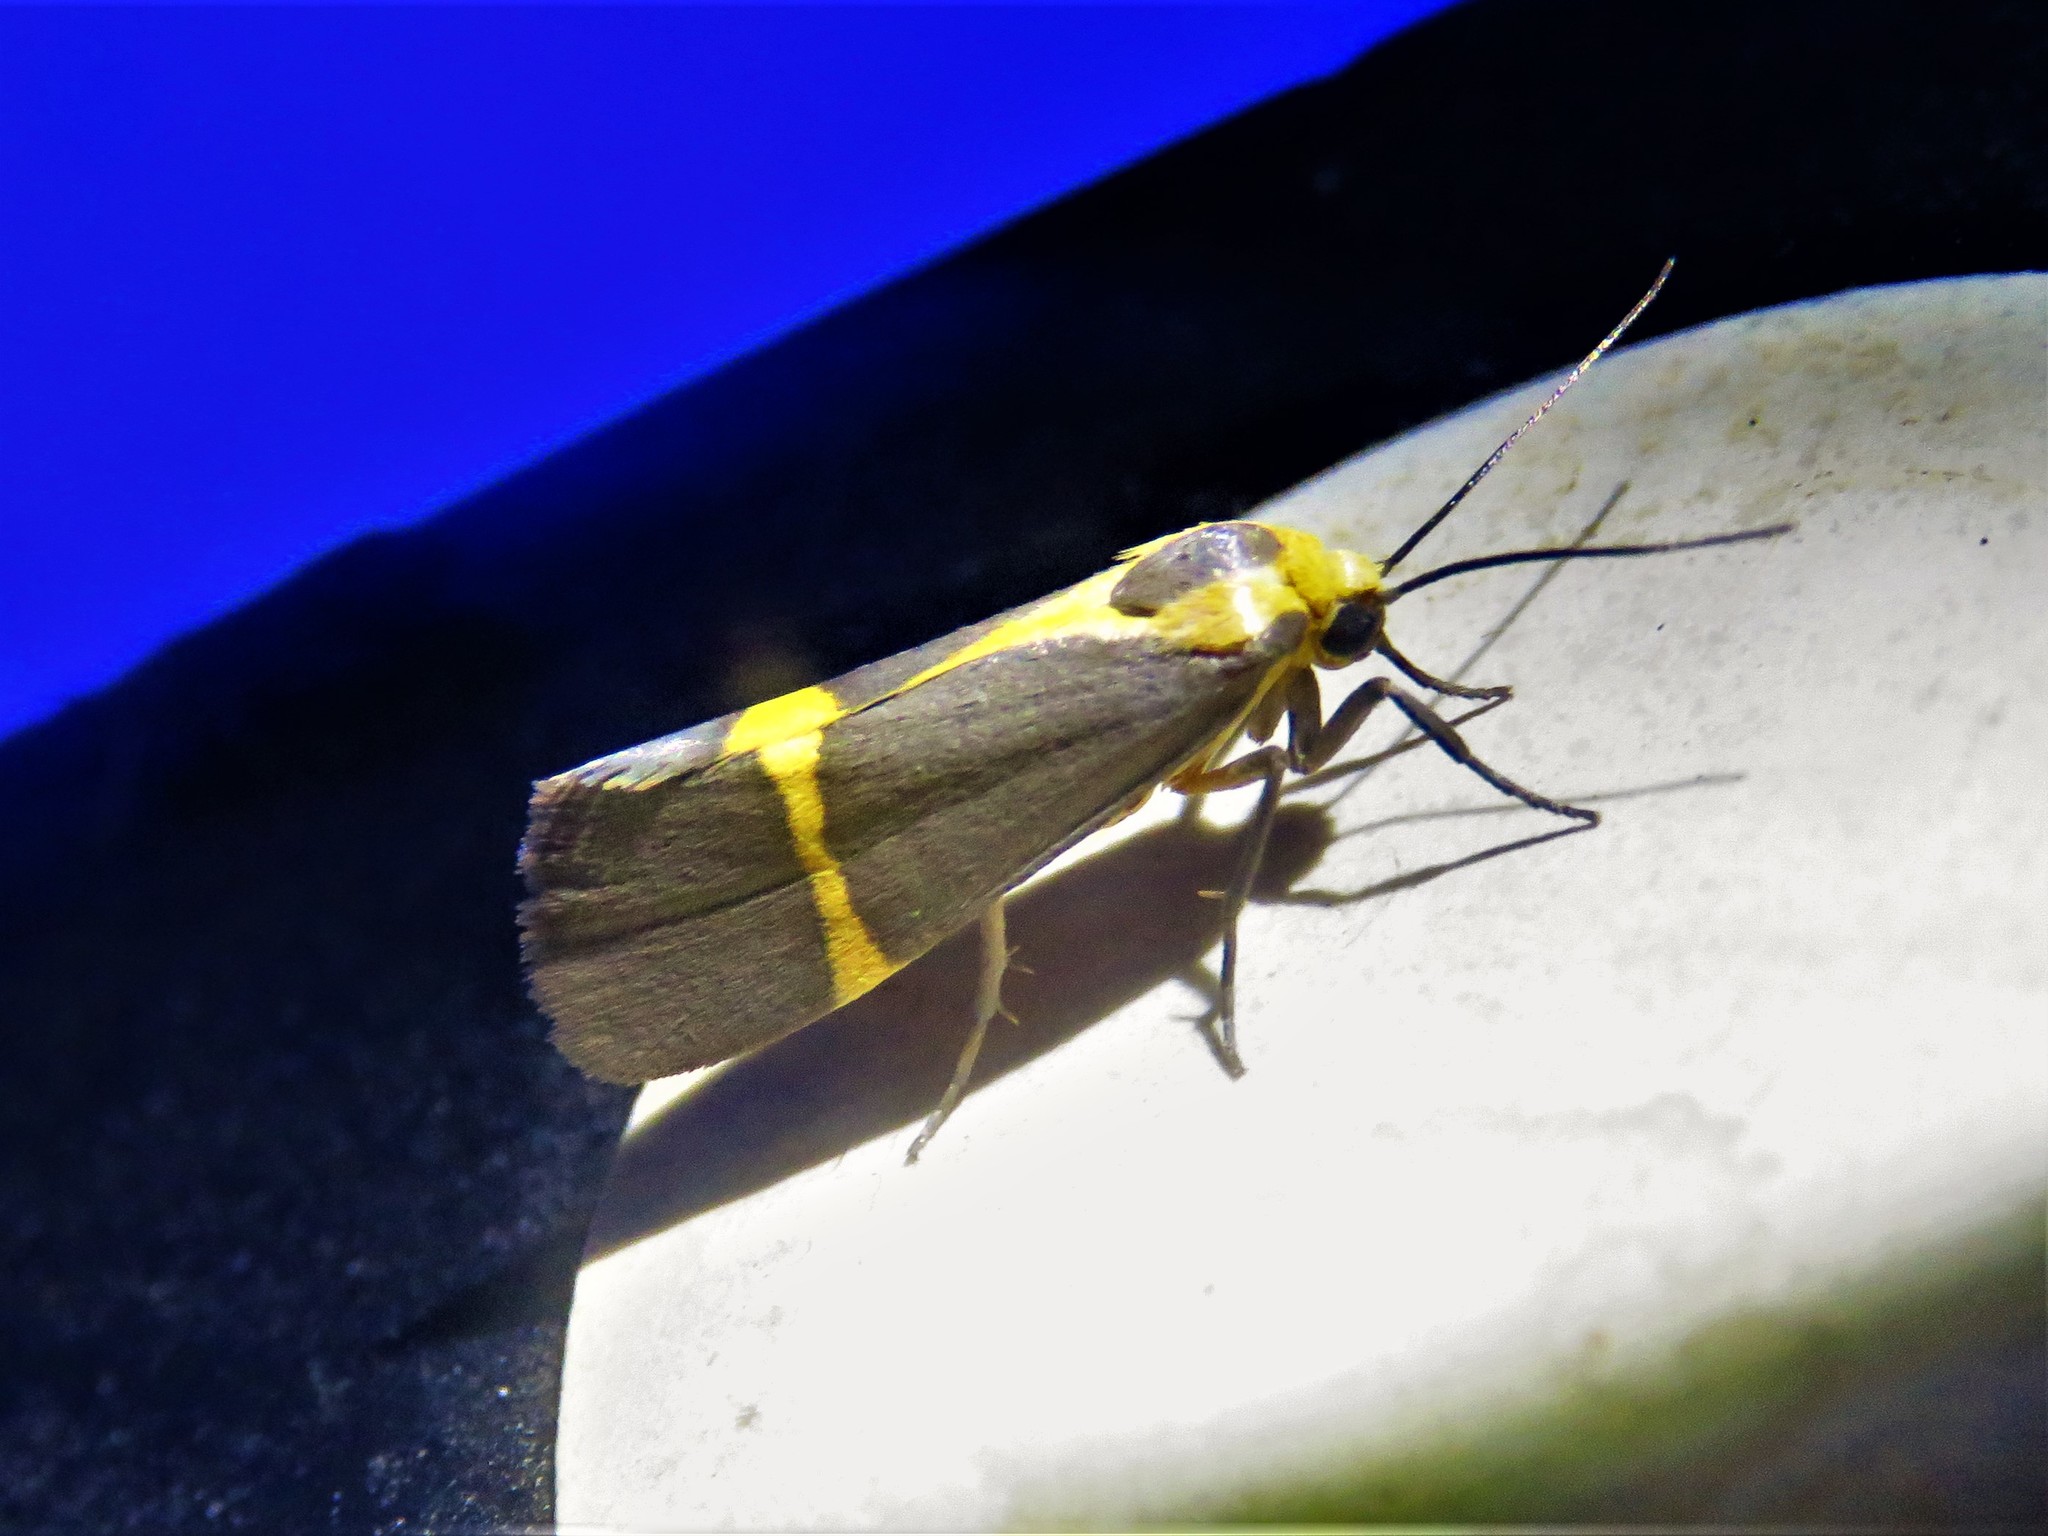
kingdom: Animalia
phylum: Arthropoda
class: Insecta
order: Lepidoptera
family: Erebidae
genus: Cisthene
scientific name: Cisthene tenuifascia
